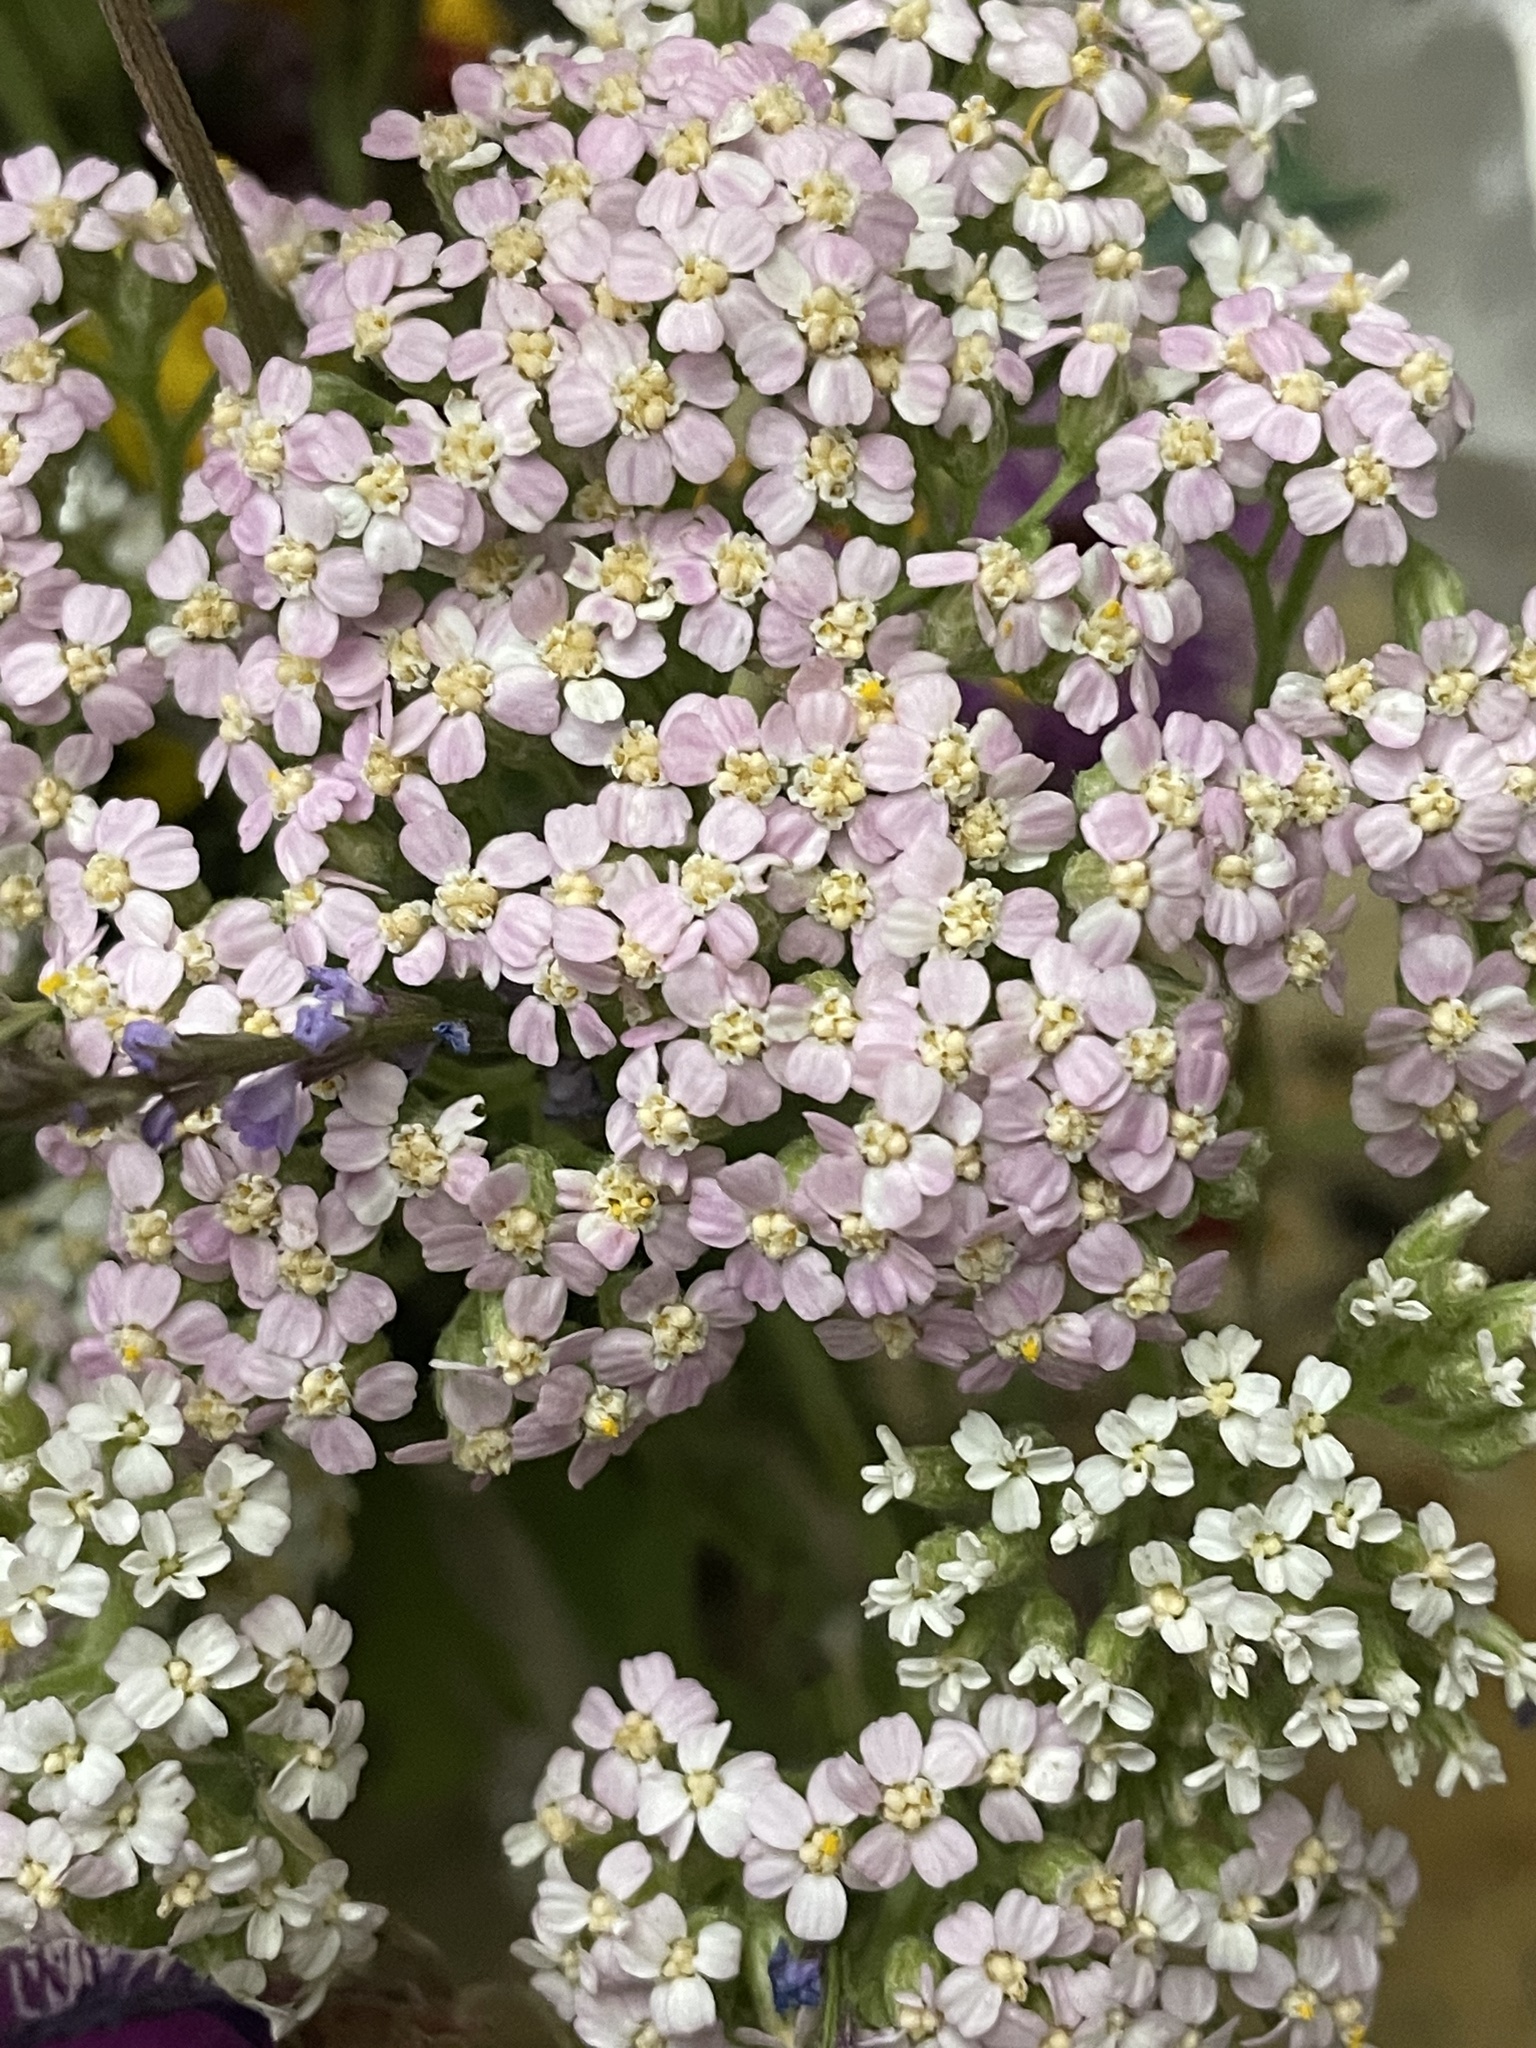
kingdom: Plantae
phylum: Tracheophyta
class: Magnoliopsida
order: Asterales
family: Asteraceae
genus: Achillea
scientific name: Achillea millefolium
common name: Yarrow
